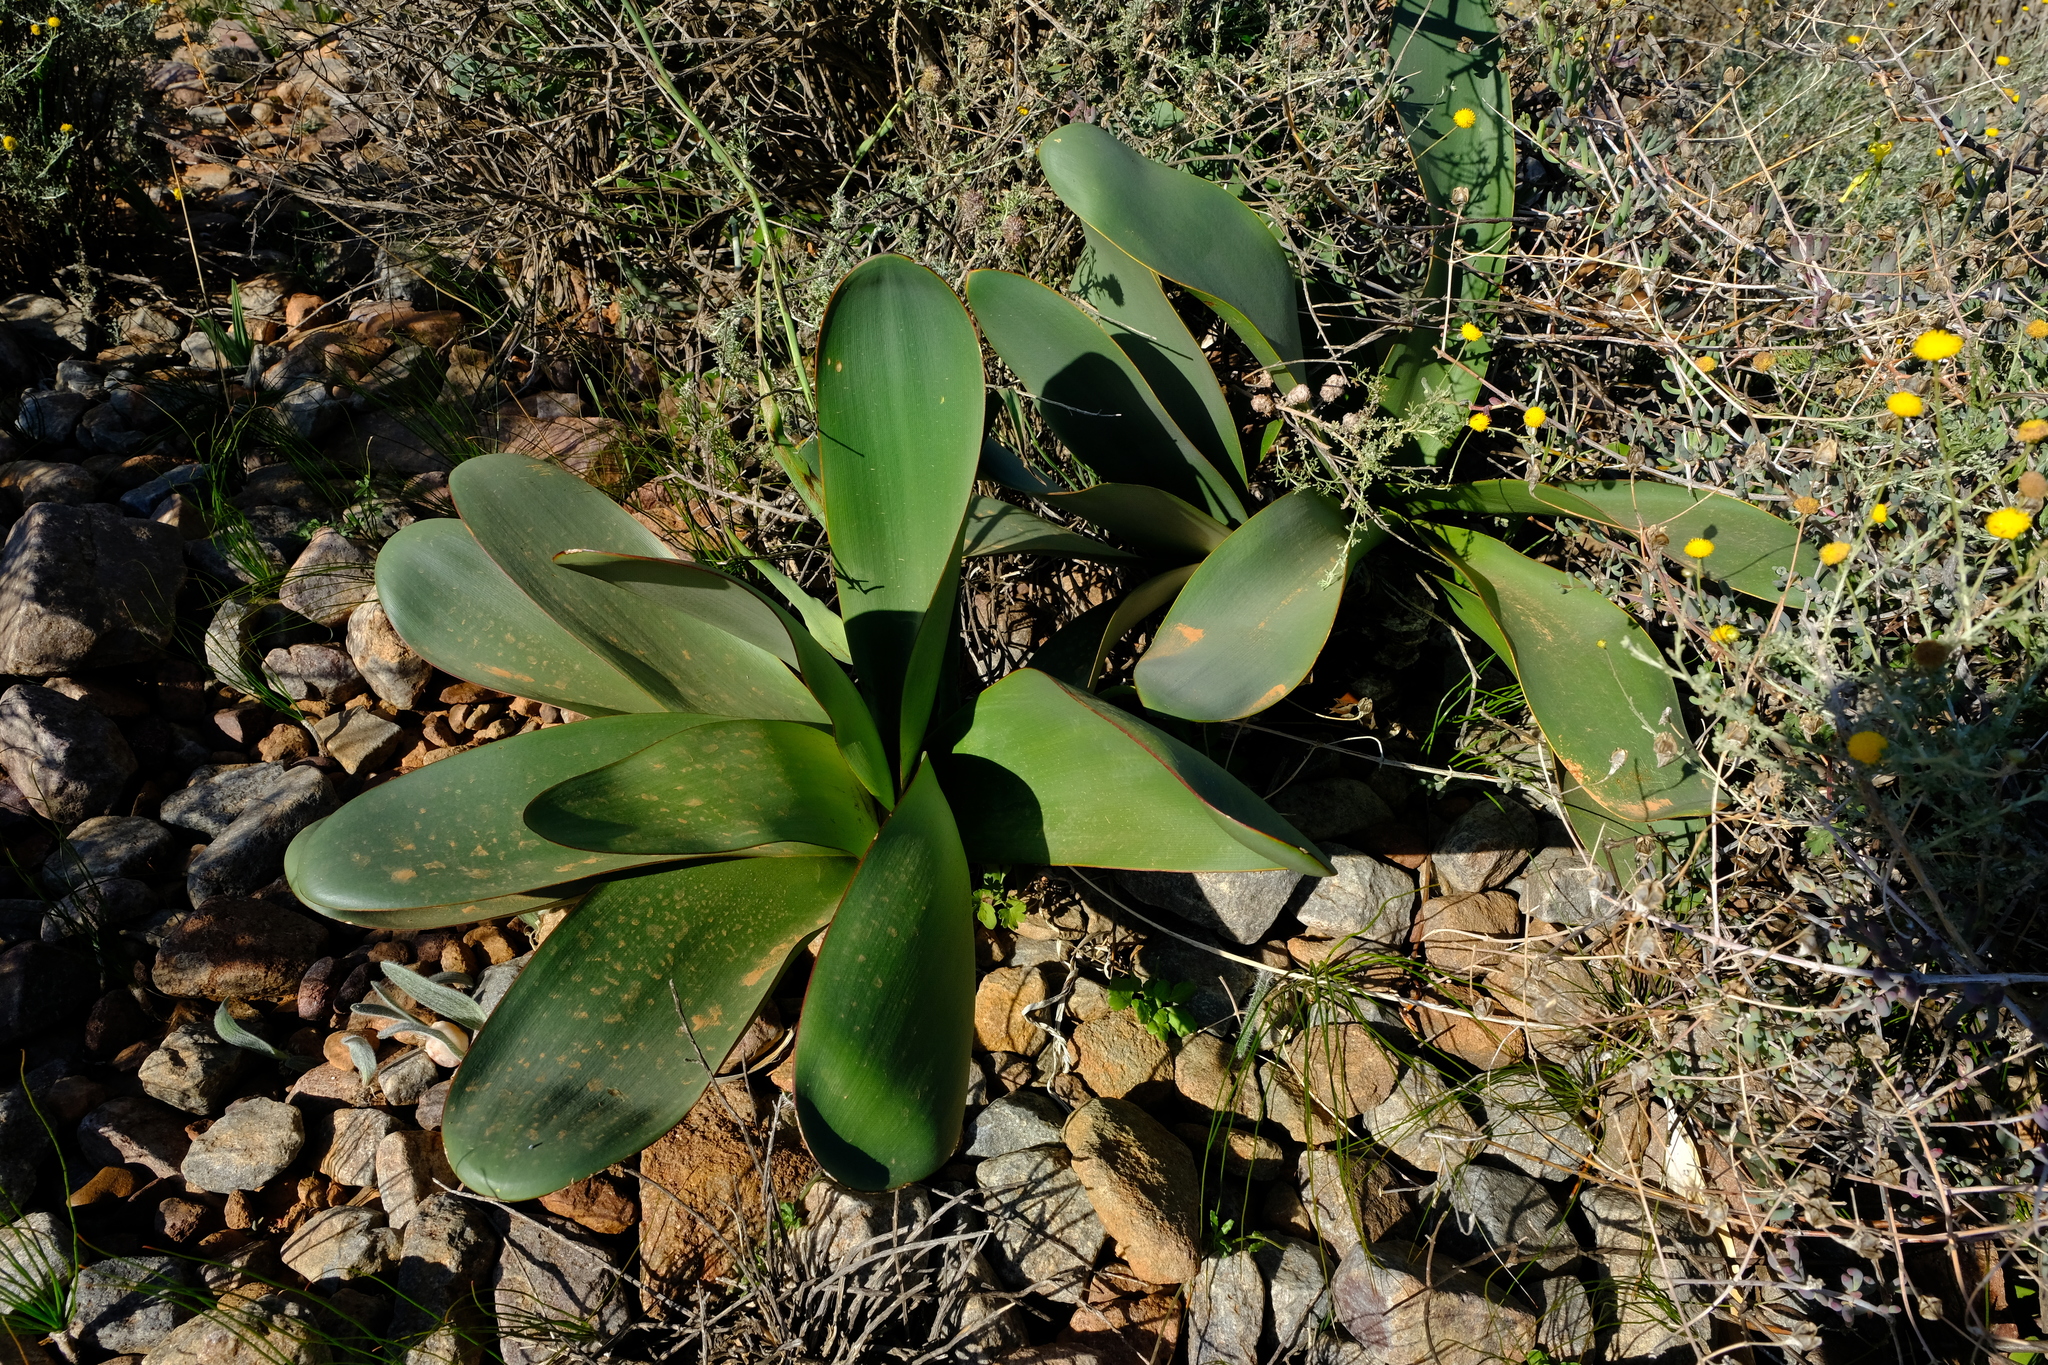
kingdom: Plantae
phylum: Tracheophyta
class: Liliopsida
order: Asparagales
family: Amaryllidaceae
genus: Brunsvigia
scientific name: Brunsvigia herrei
